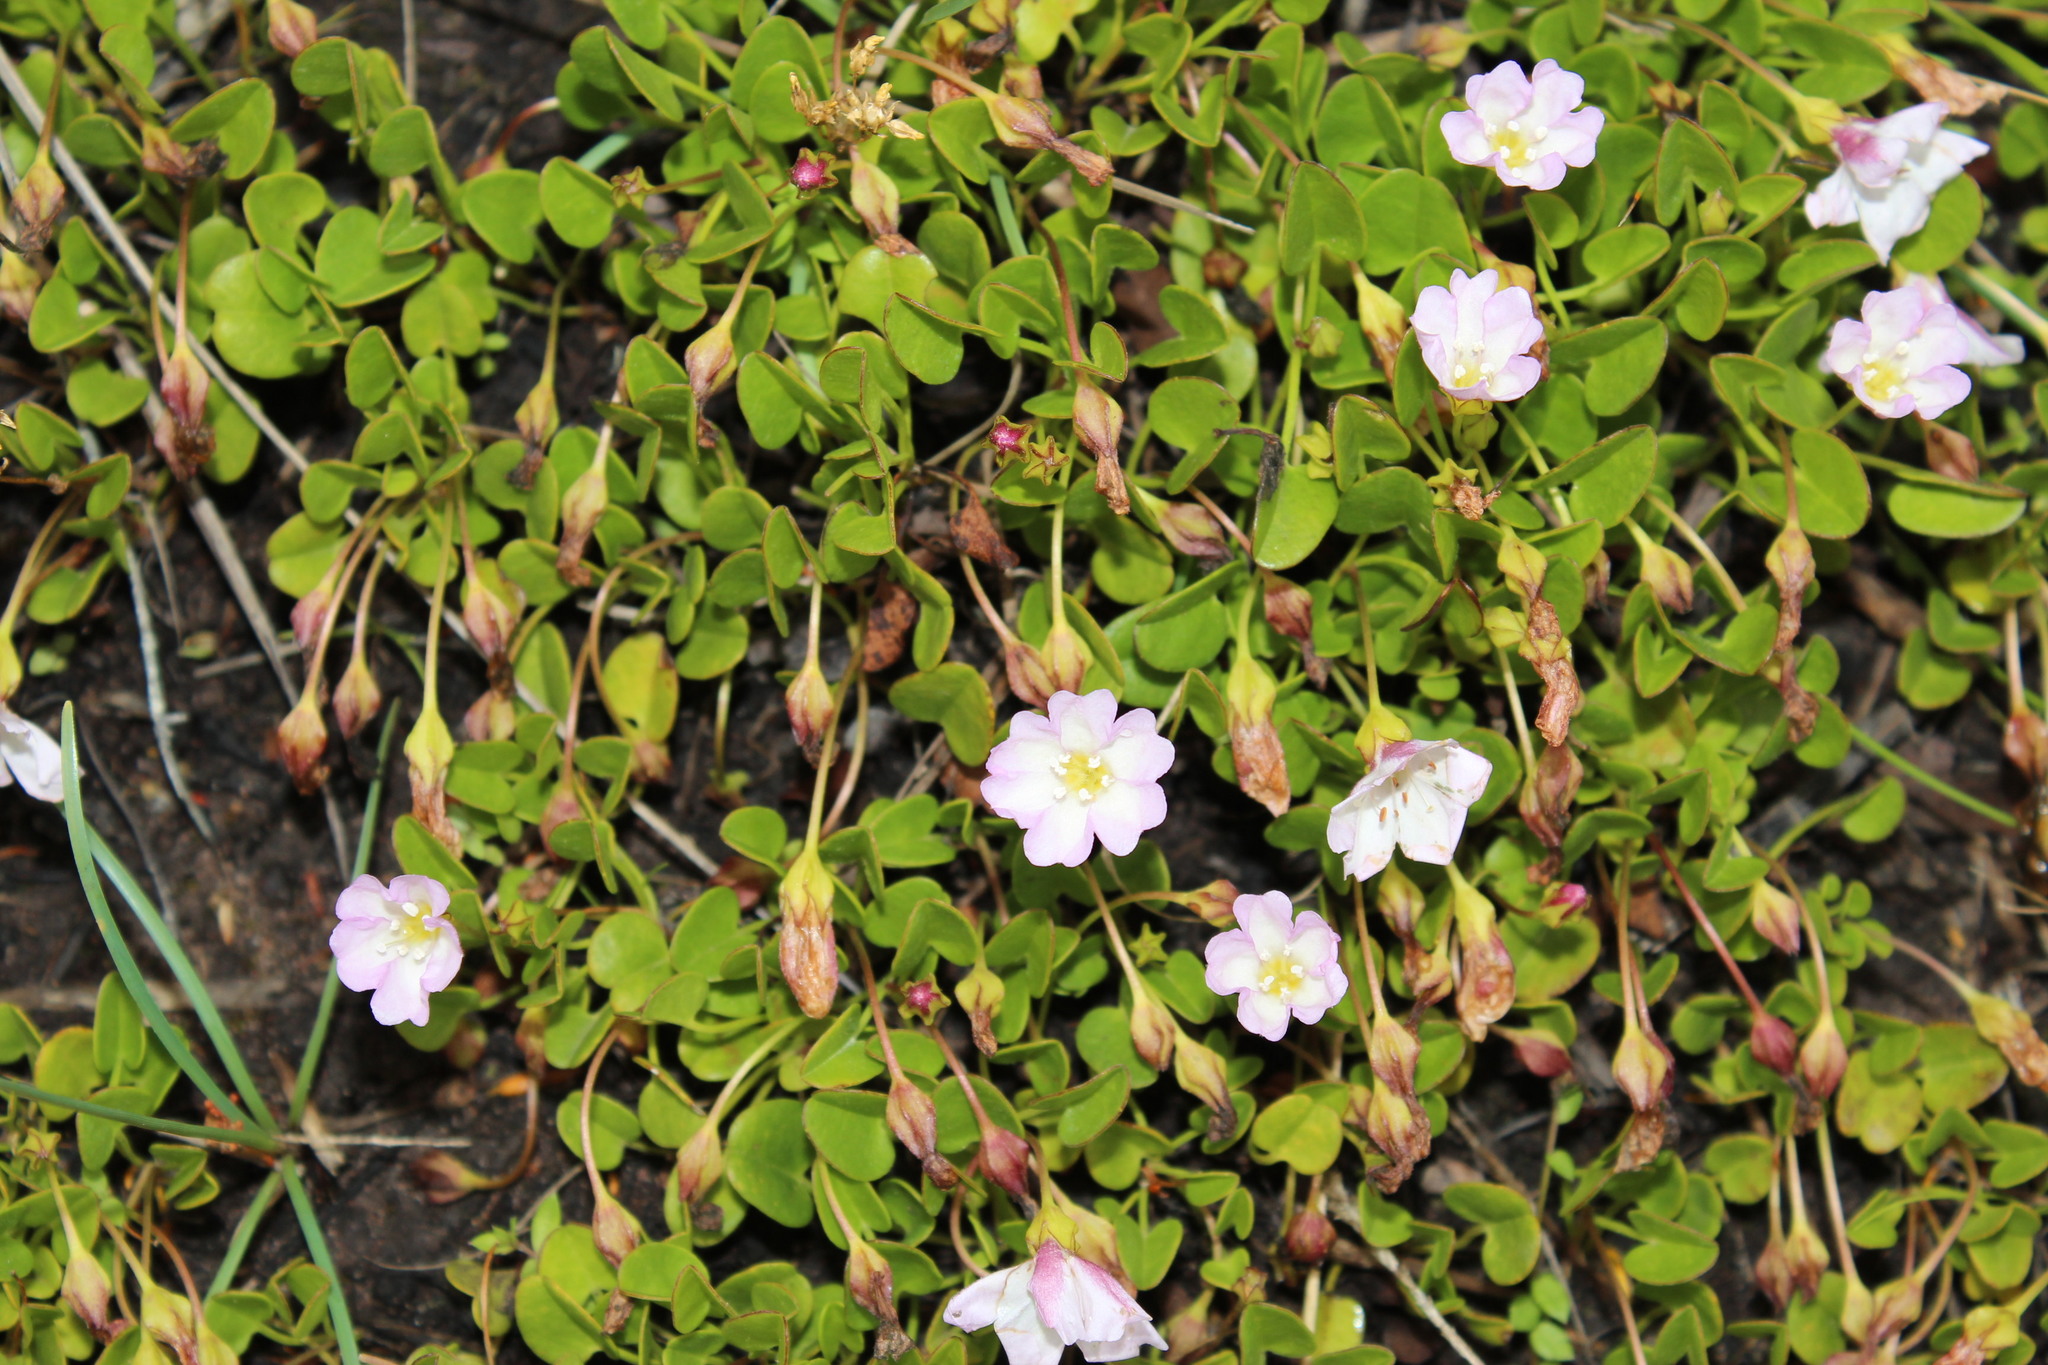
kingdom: Plantae
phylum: Tracheophyta
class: Magnoliopsida
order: Solanales
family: Convolvulaceae
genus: Falkia
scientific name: Falkia repens
